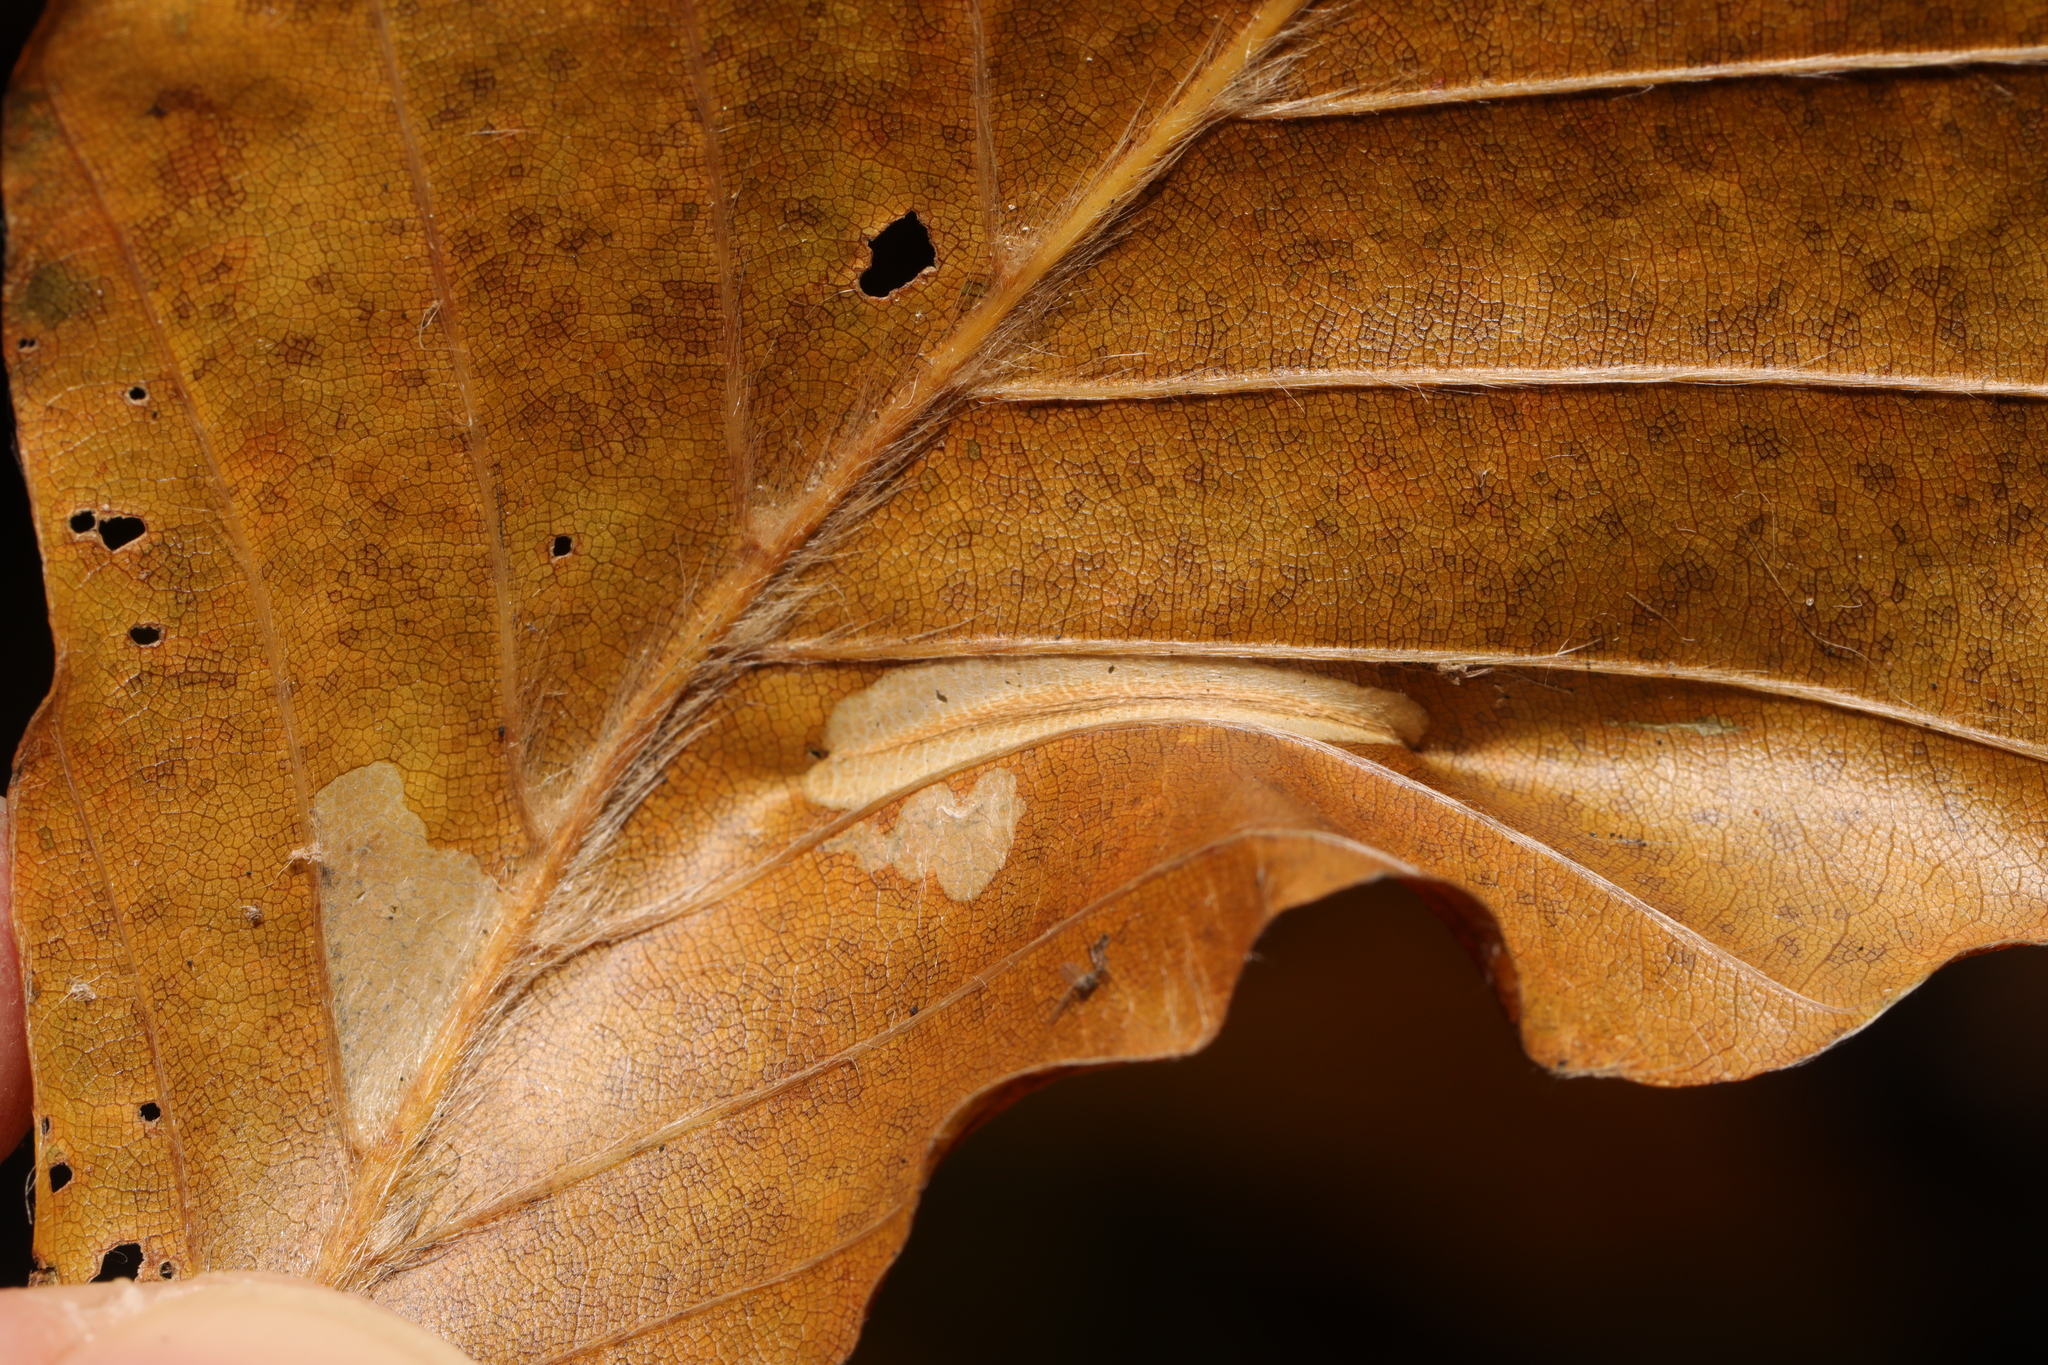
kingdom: Animalia
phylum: Arthropoda
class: Insecta
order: Lepidoptera
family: Gracillariidae
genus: Phyllonorycter
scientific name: Phyllonorycter maestingella
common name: Beech midget
